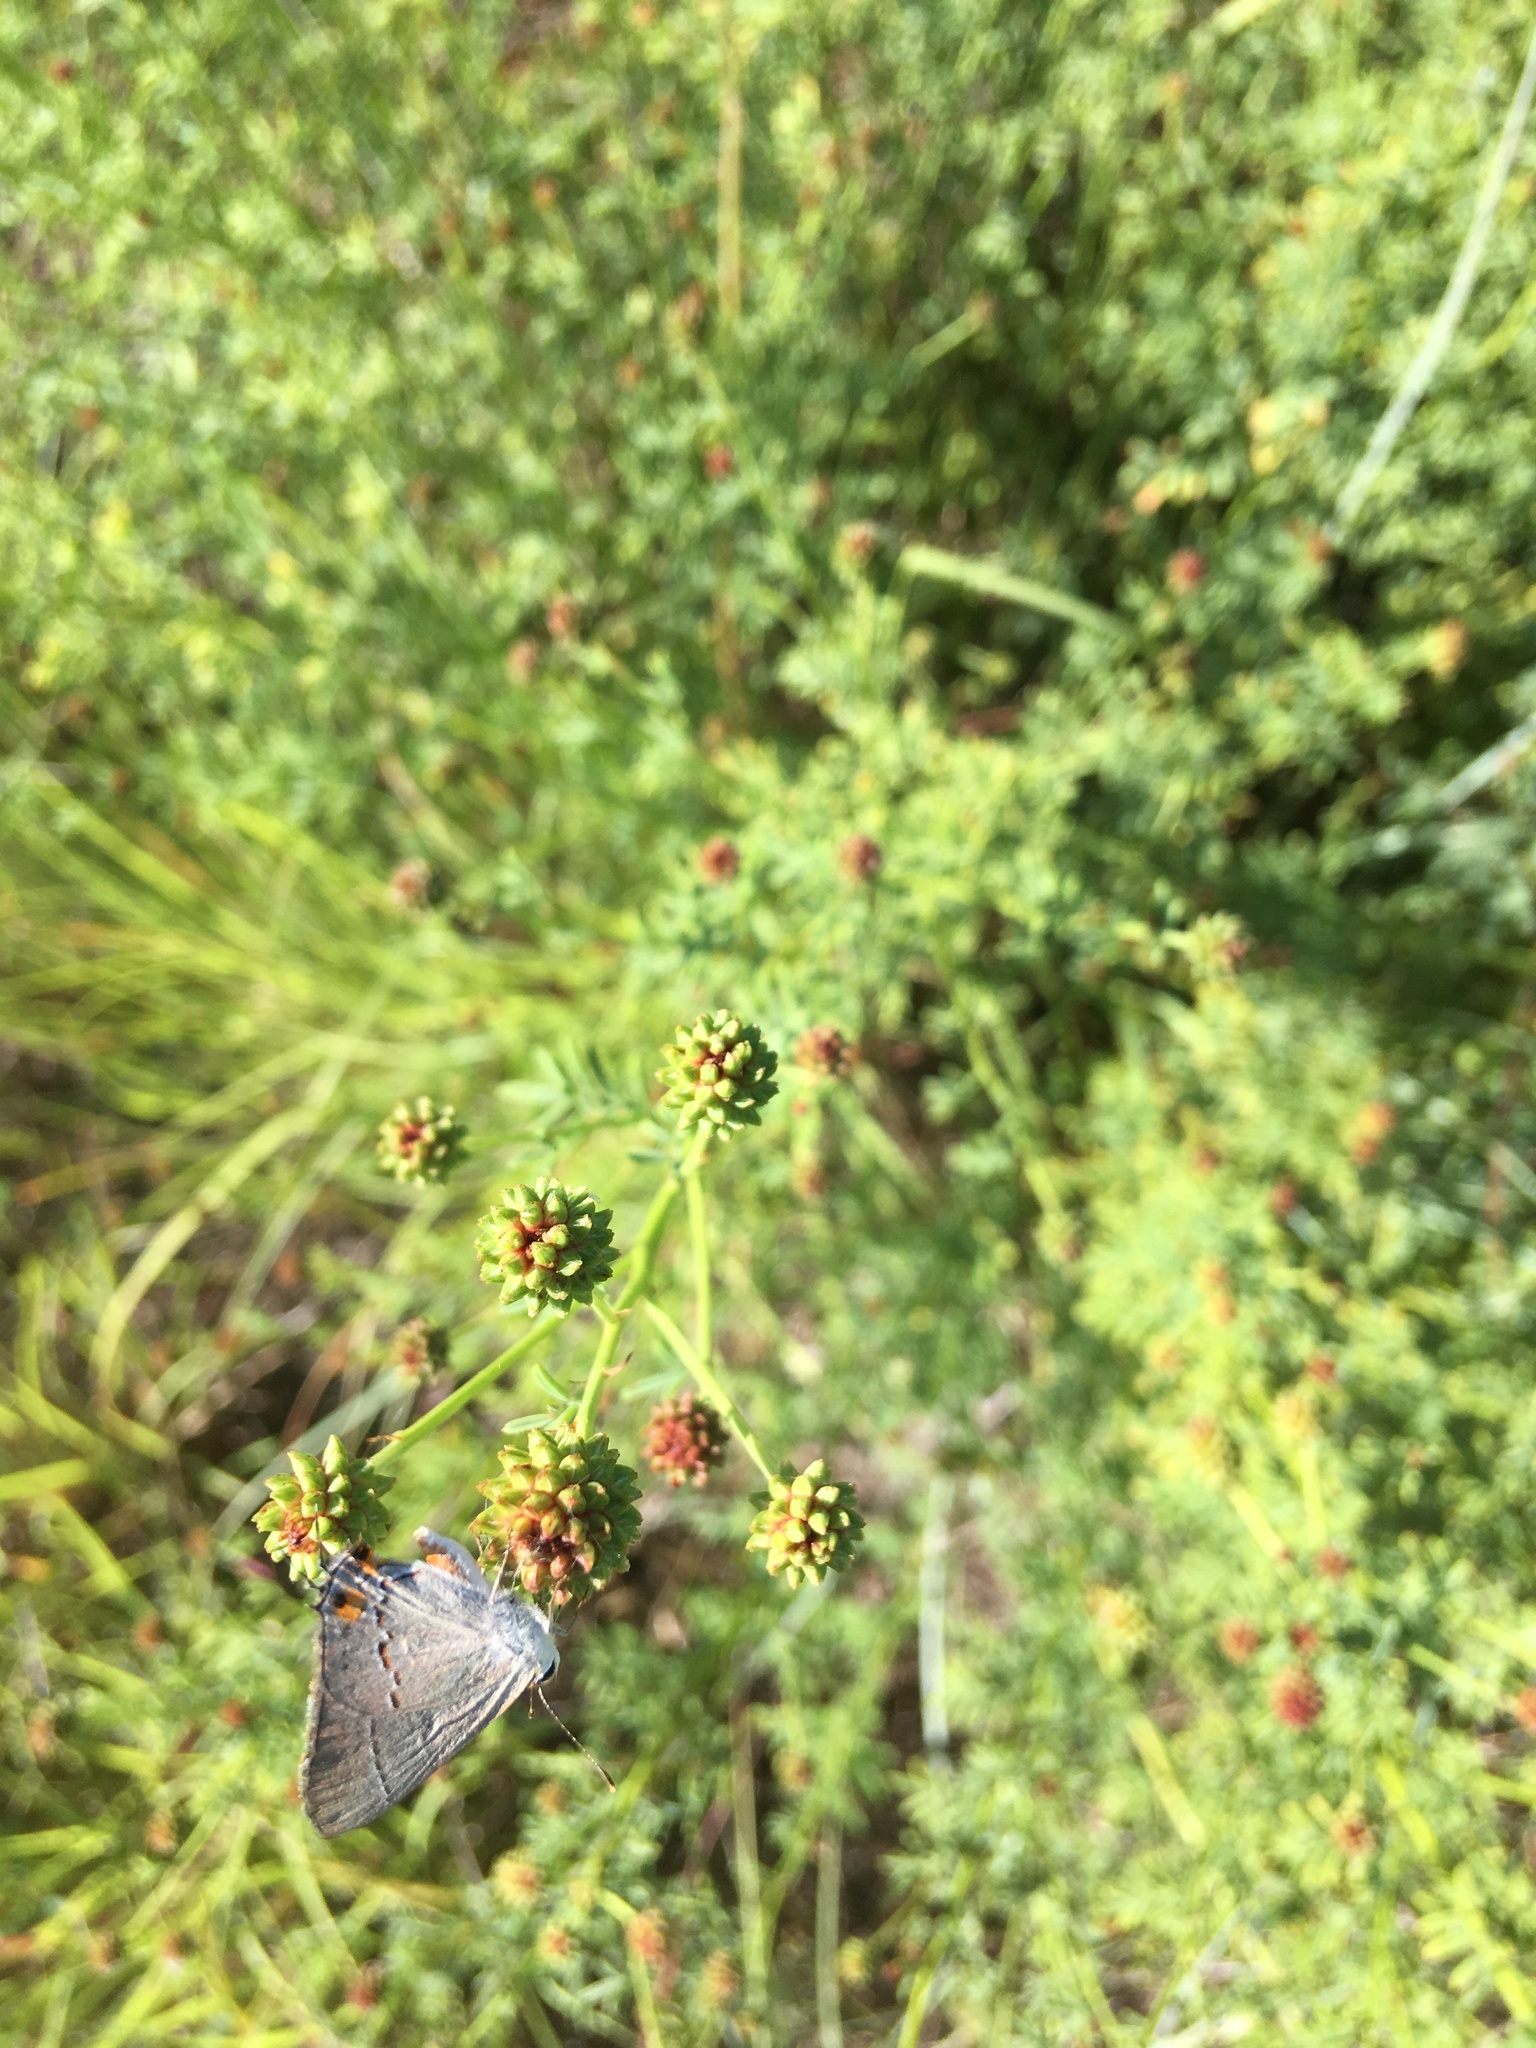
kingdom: Animalia
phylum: Arthropoda
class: Insecta
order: Lepidoptera
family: Lycaenidae
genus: Strymon
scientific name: Strymon melinus
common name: Gray hairstreak
